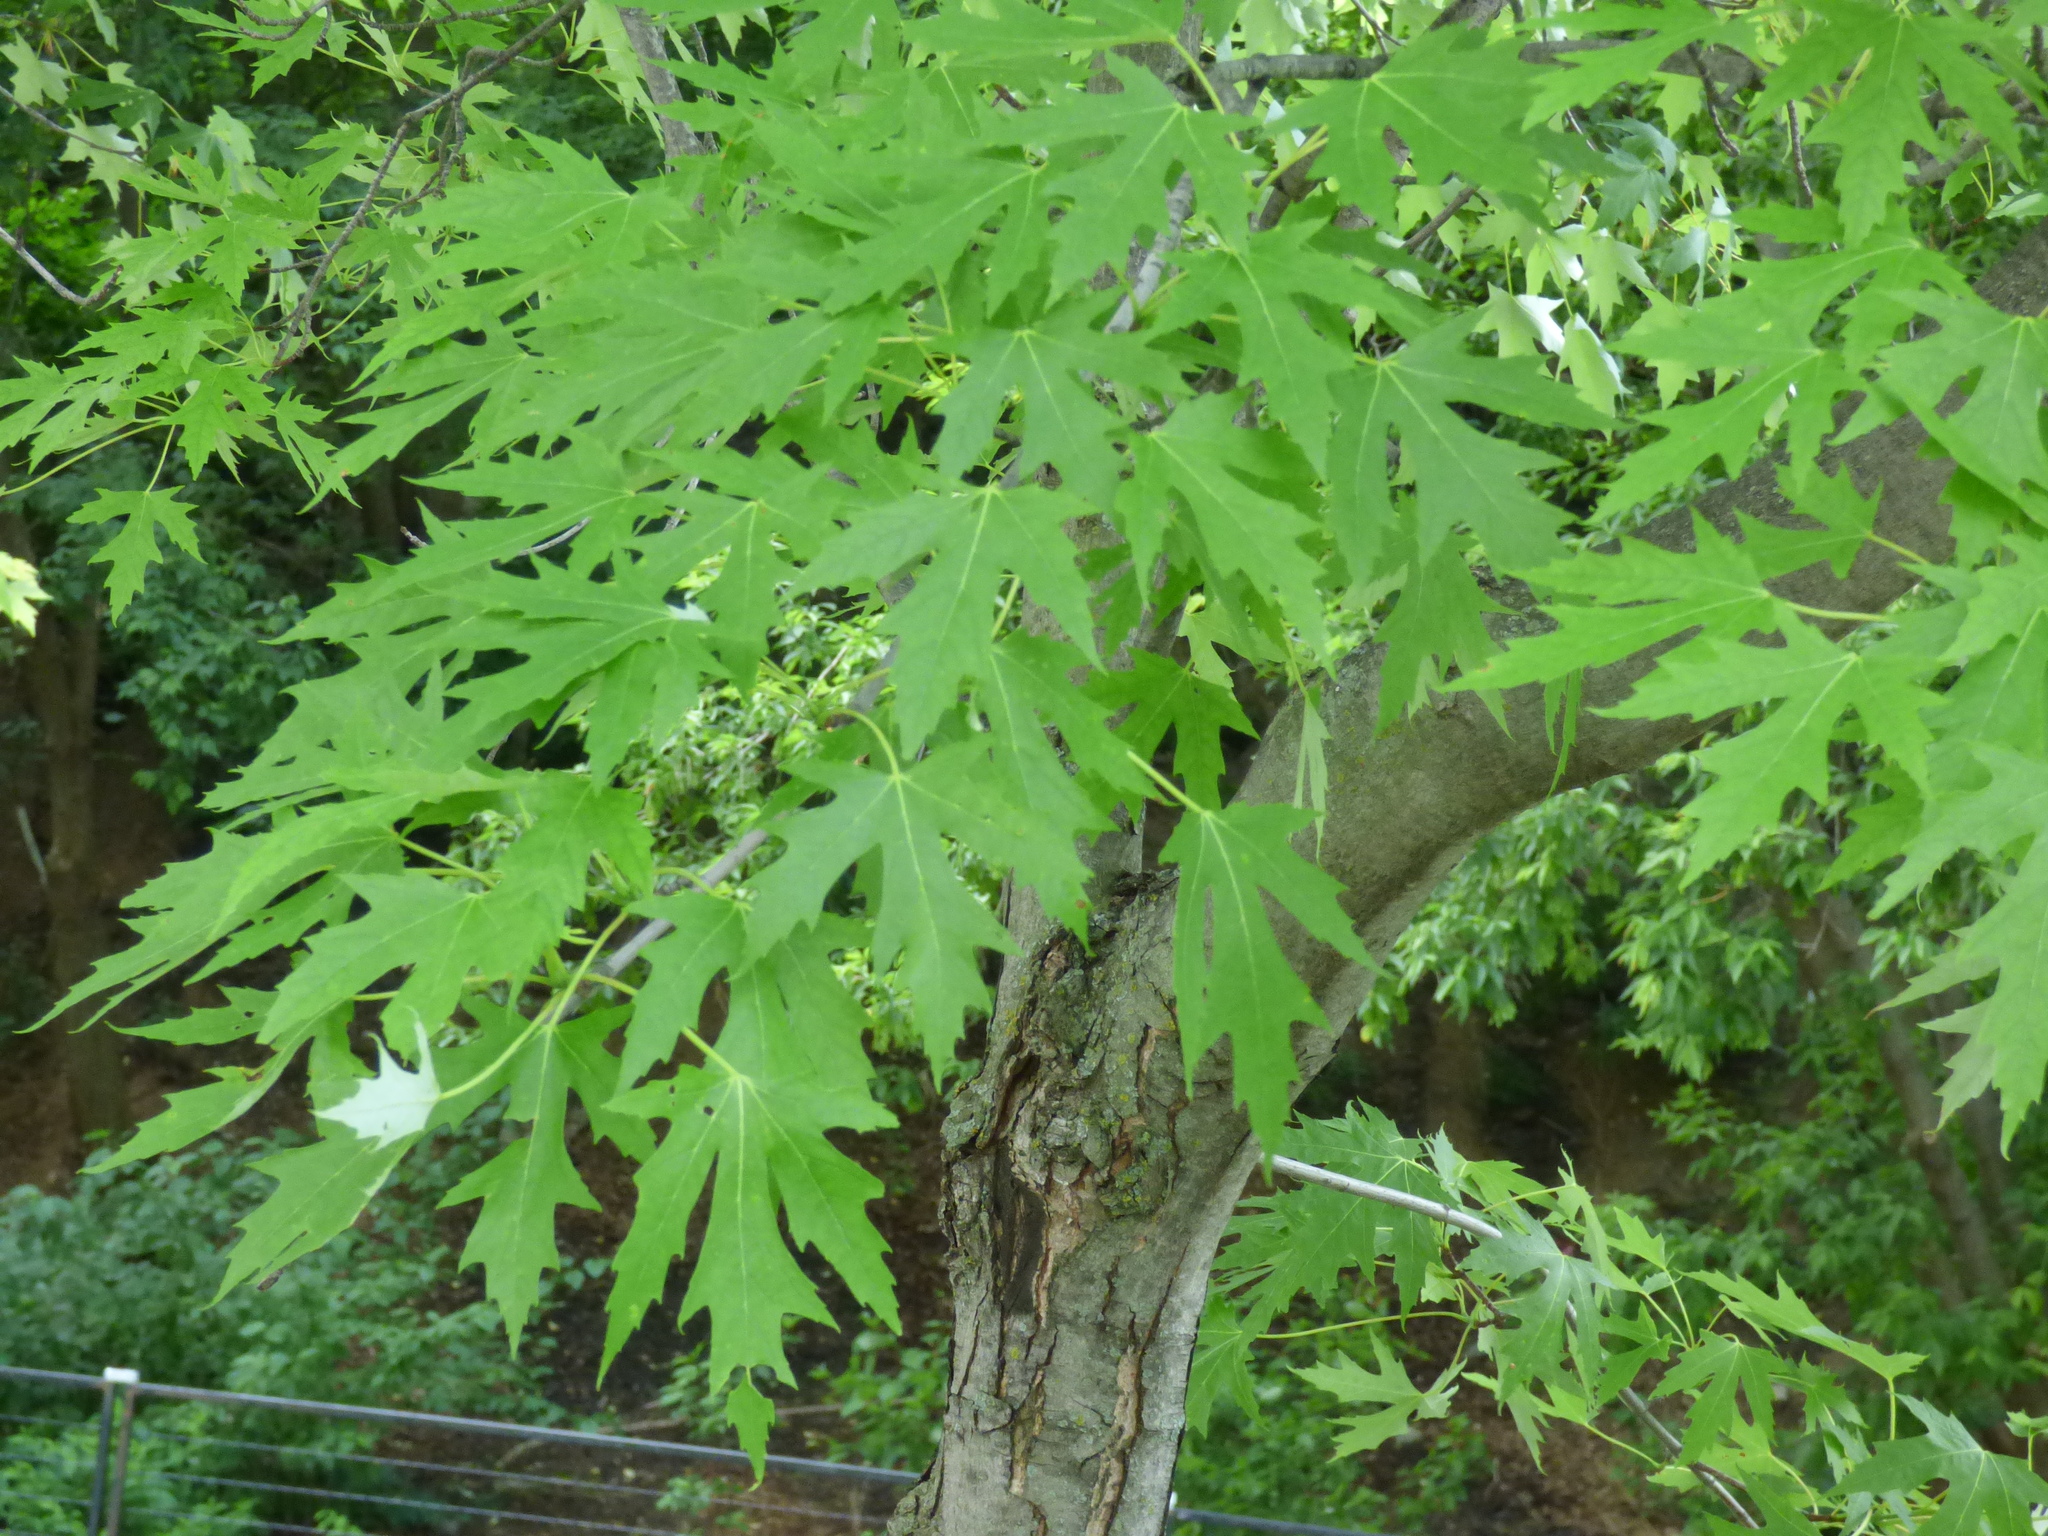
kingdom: Plantae
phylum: Tracheophyta
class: Magnoliopsida
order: Sapindales
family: Sapindaceae
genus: Acer
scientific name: Acer saccharinum
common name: Silver maple
